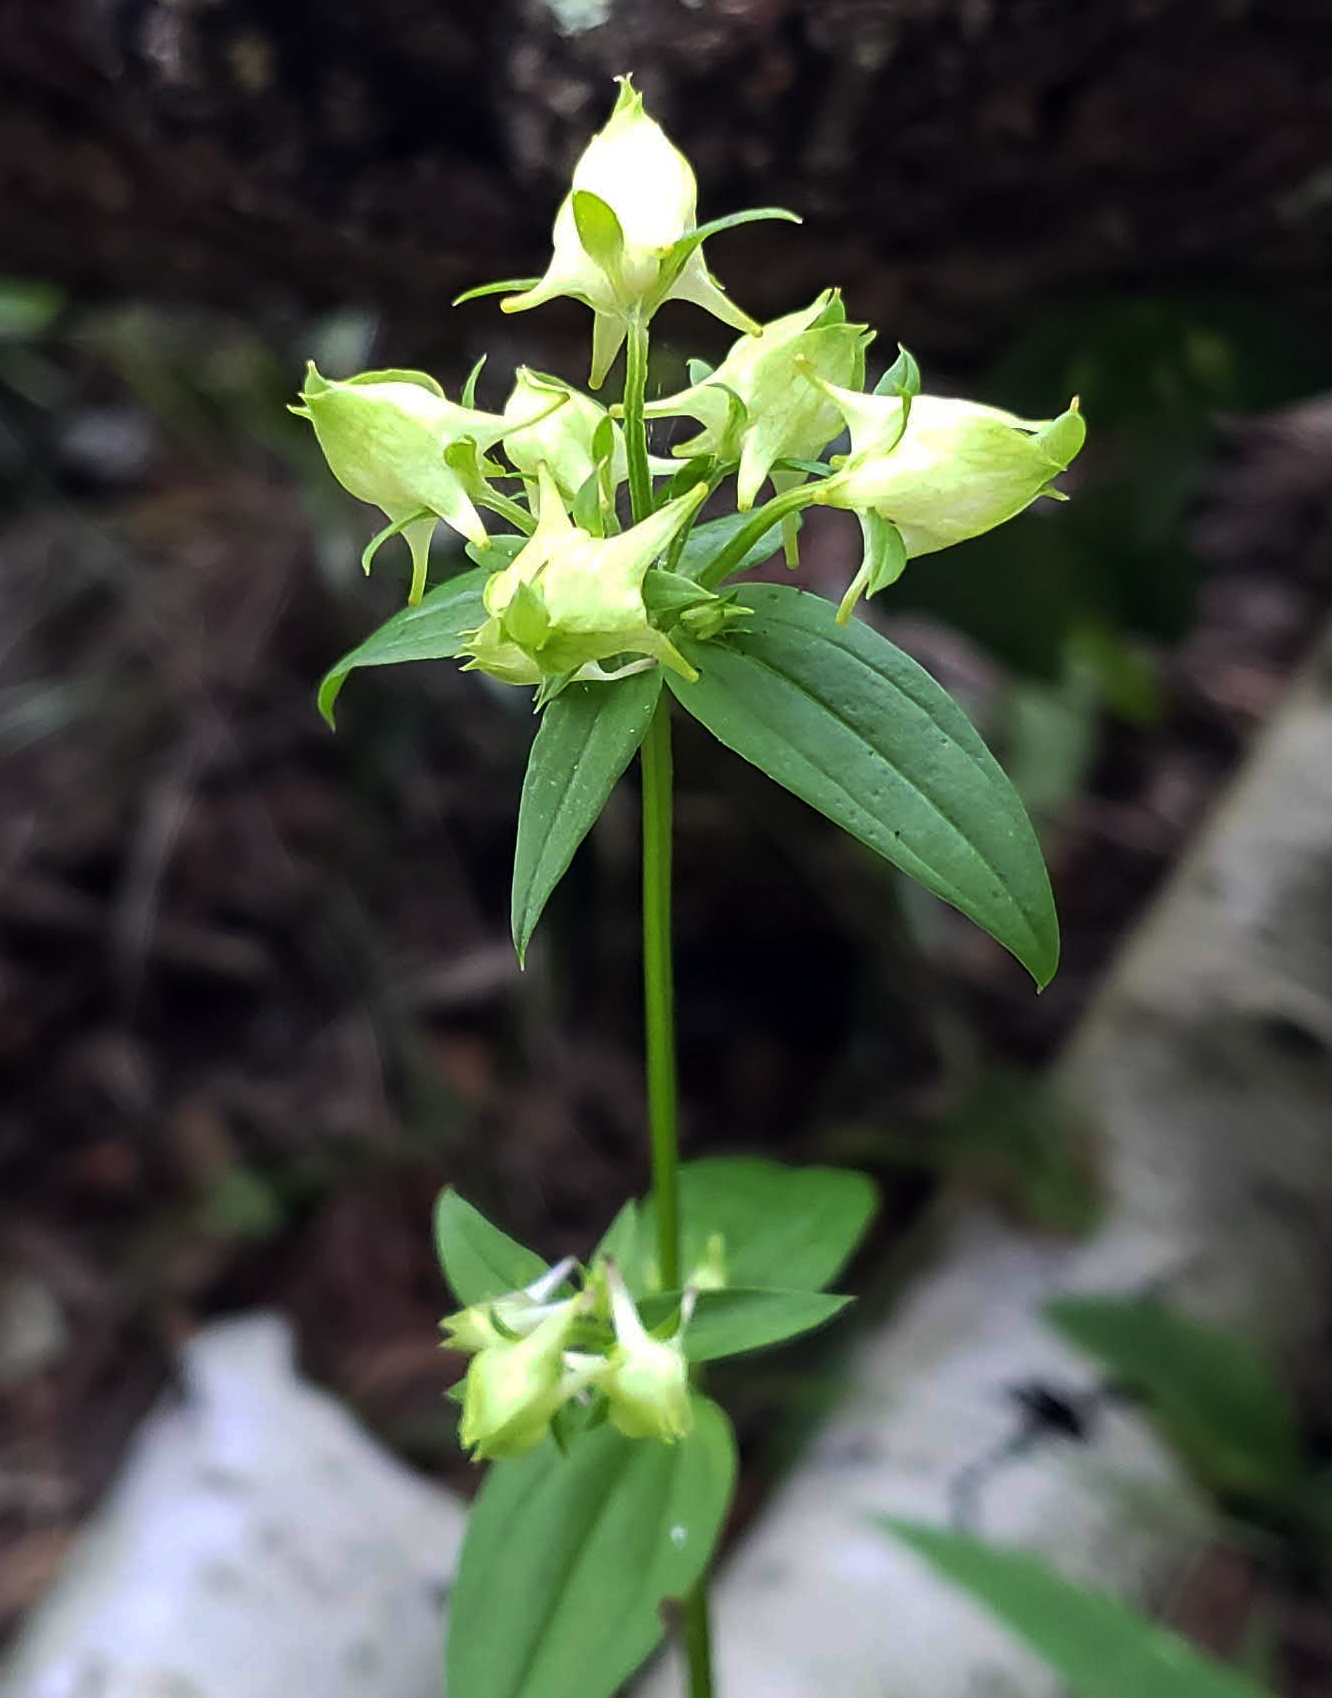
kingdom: Plantae
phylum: Tracheophyta
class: Magnoliopsida
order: Gentianales
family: Gentianaceae
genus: Halenia
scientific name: Halenia deflexa
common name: American spurred gentian
